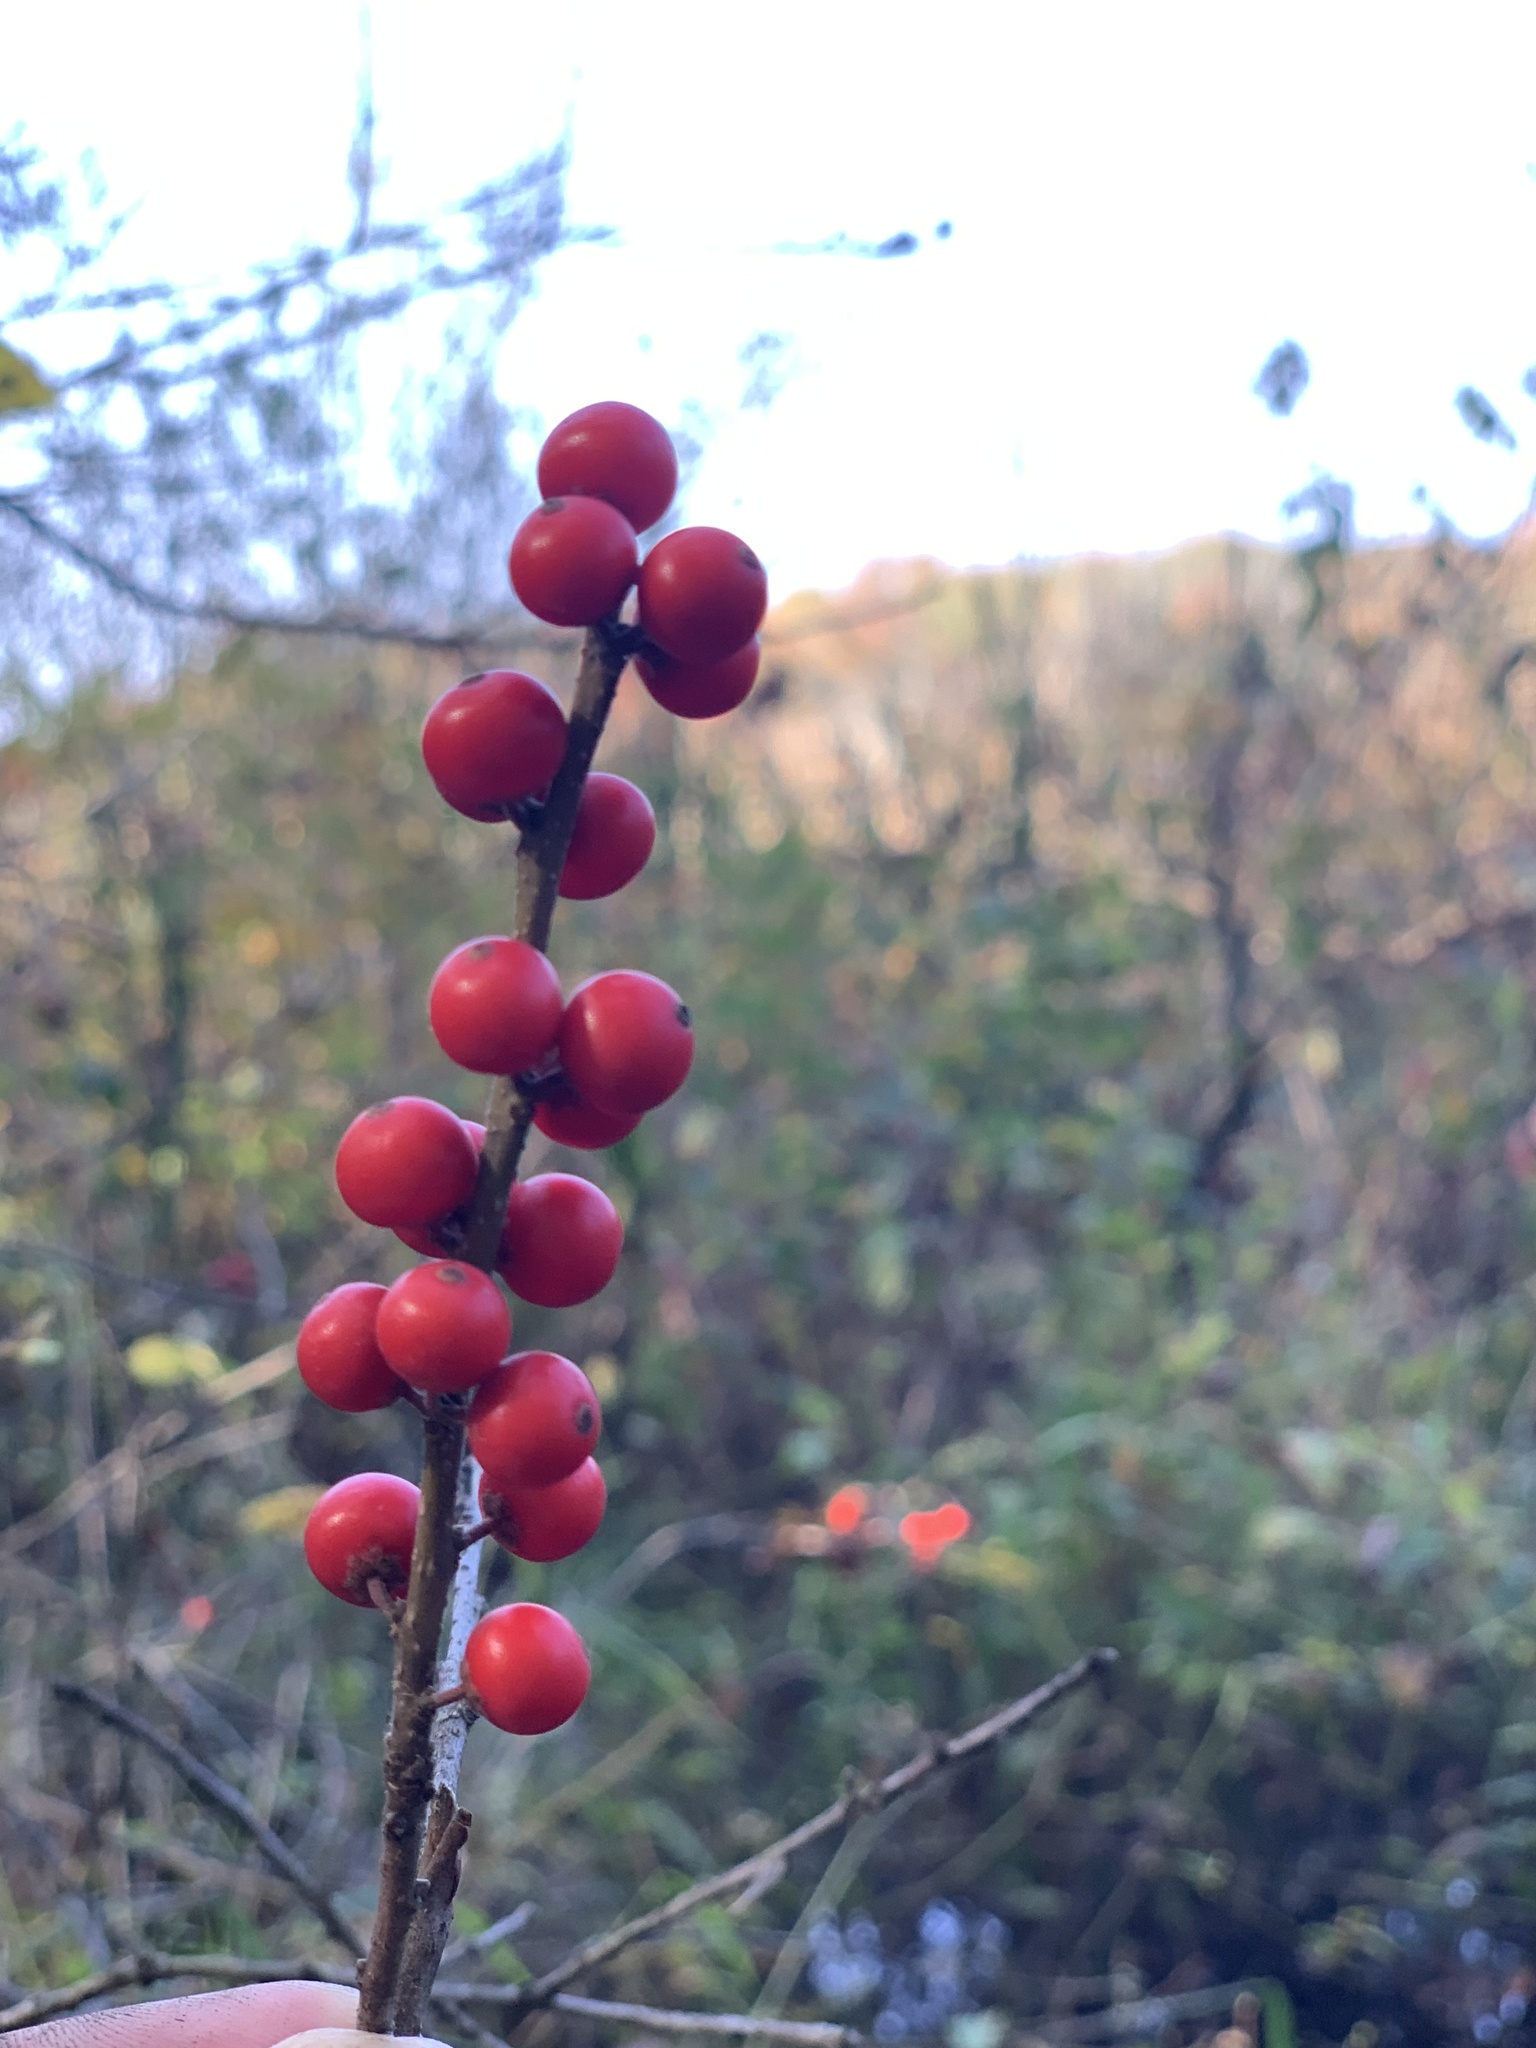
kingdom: Plantae
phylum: Tracheophyta
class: Magnoliopsida
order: Aquifoliales
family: Aquifoliaceae
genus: Ilex
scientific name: Ilex verticillata
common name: Virginia winterberry
